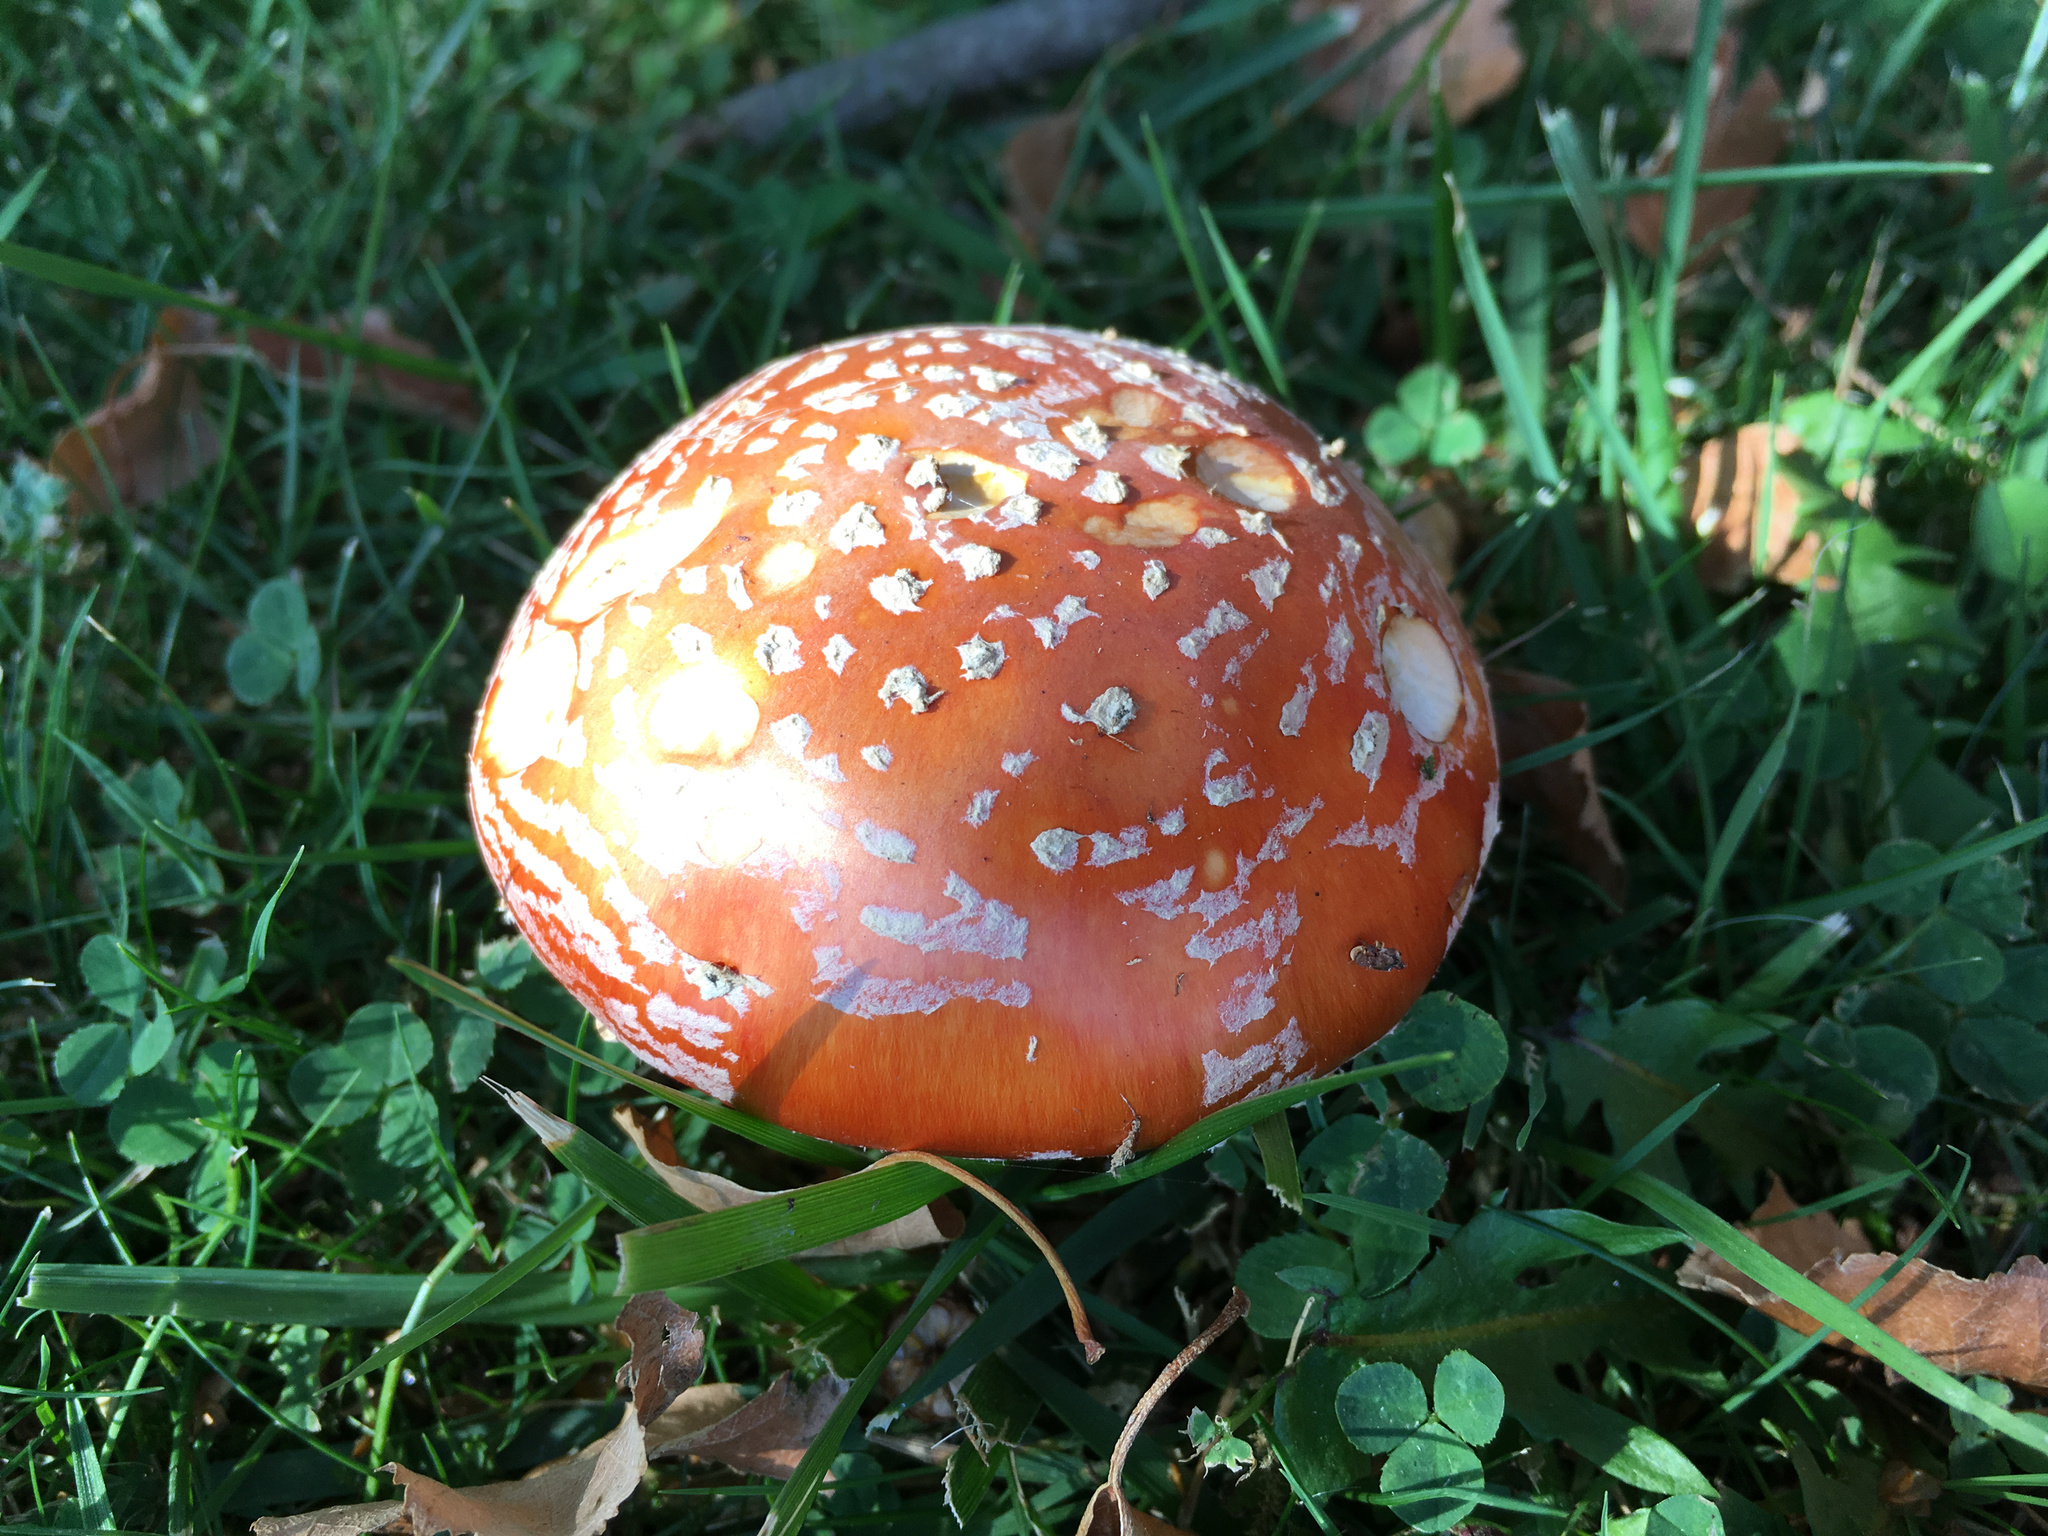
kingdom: Fungi
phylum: Basidiomycota
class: Agaricomycetes
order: Agaricales
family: Amanitaceae
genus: Amanita
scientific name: Amanita muscaria
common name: Fly agaric
